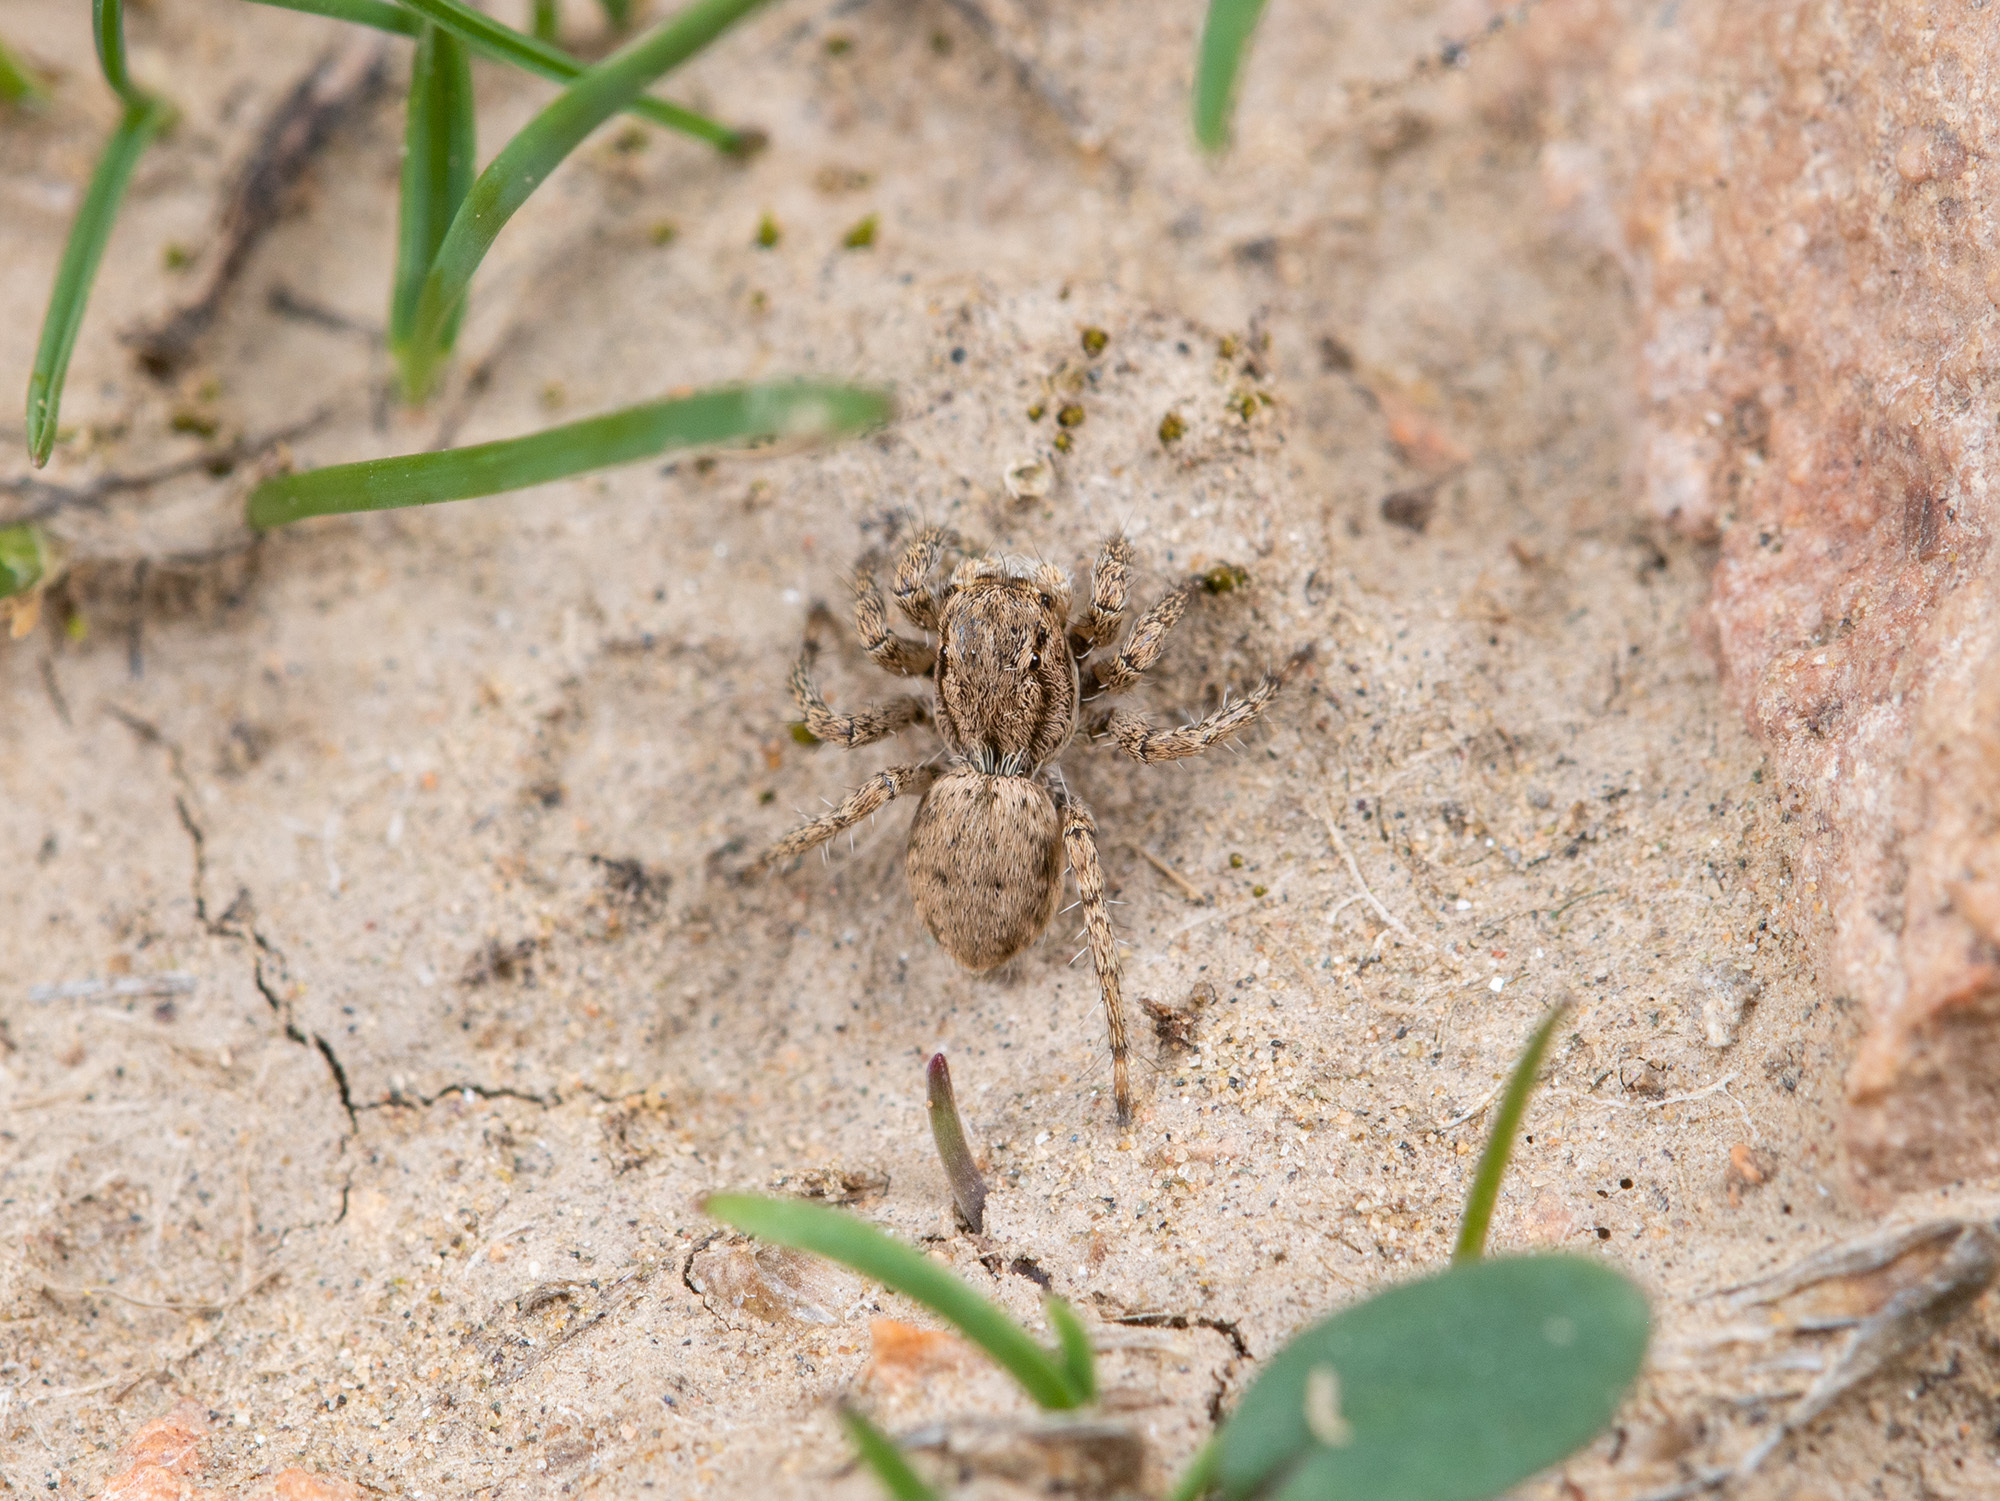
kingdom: Animalia
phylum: Arthropoda
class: Arachnida
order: Araneae
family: Salticidae
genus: Rafalus
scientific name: Rafalus variegatus
